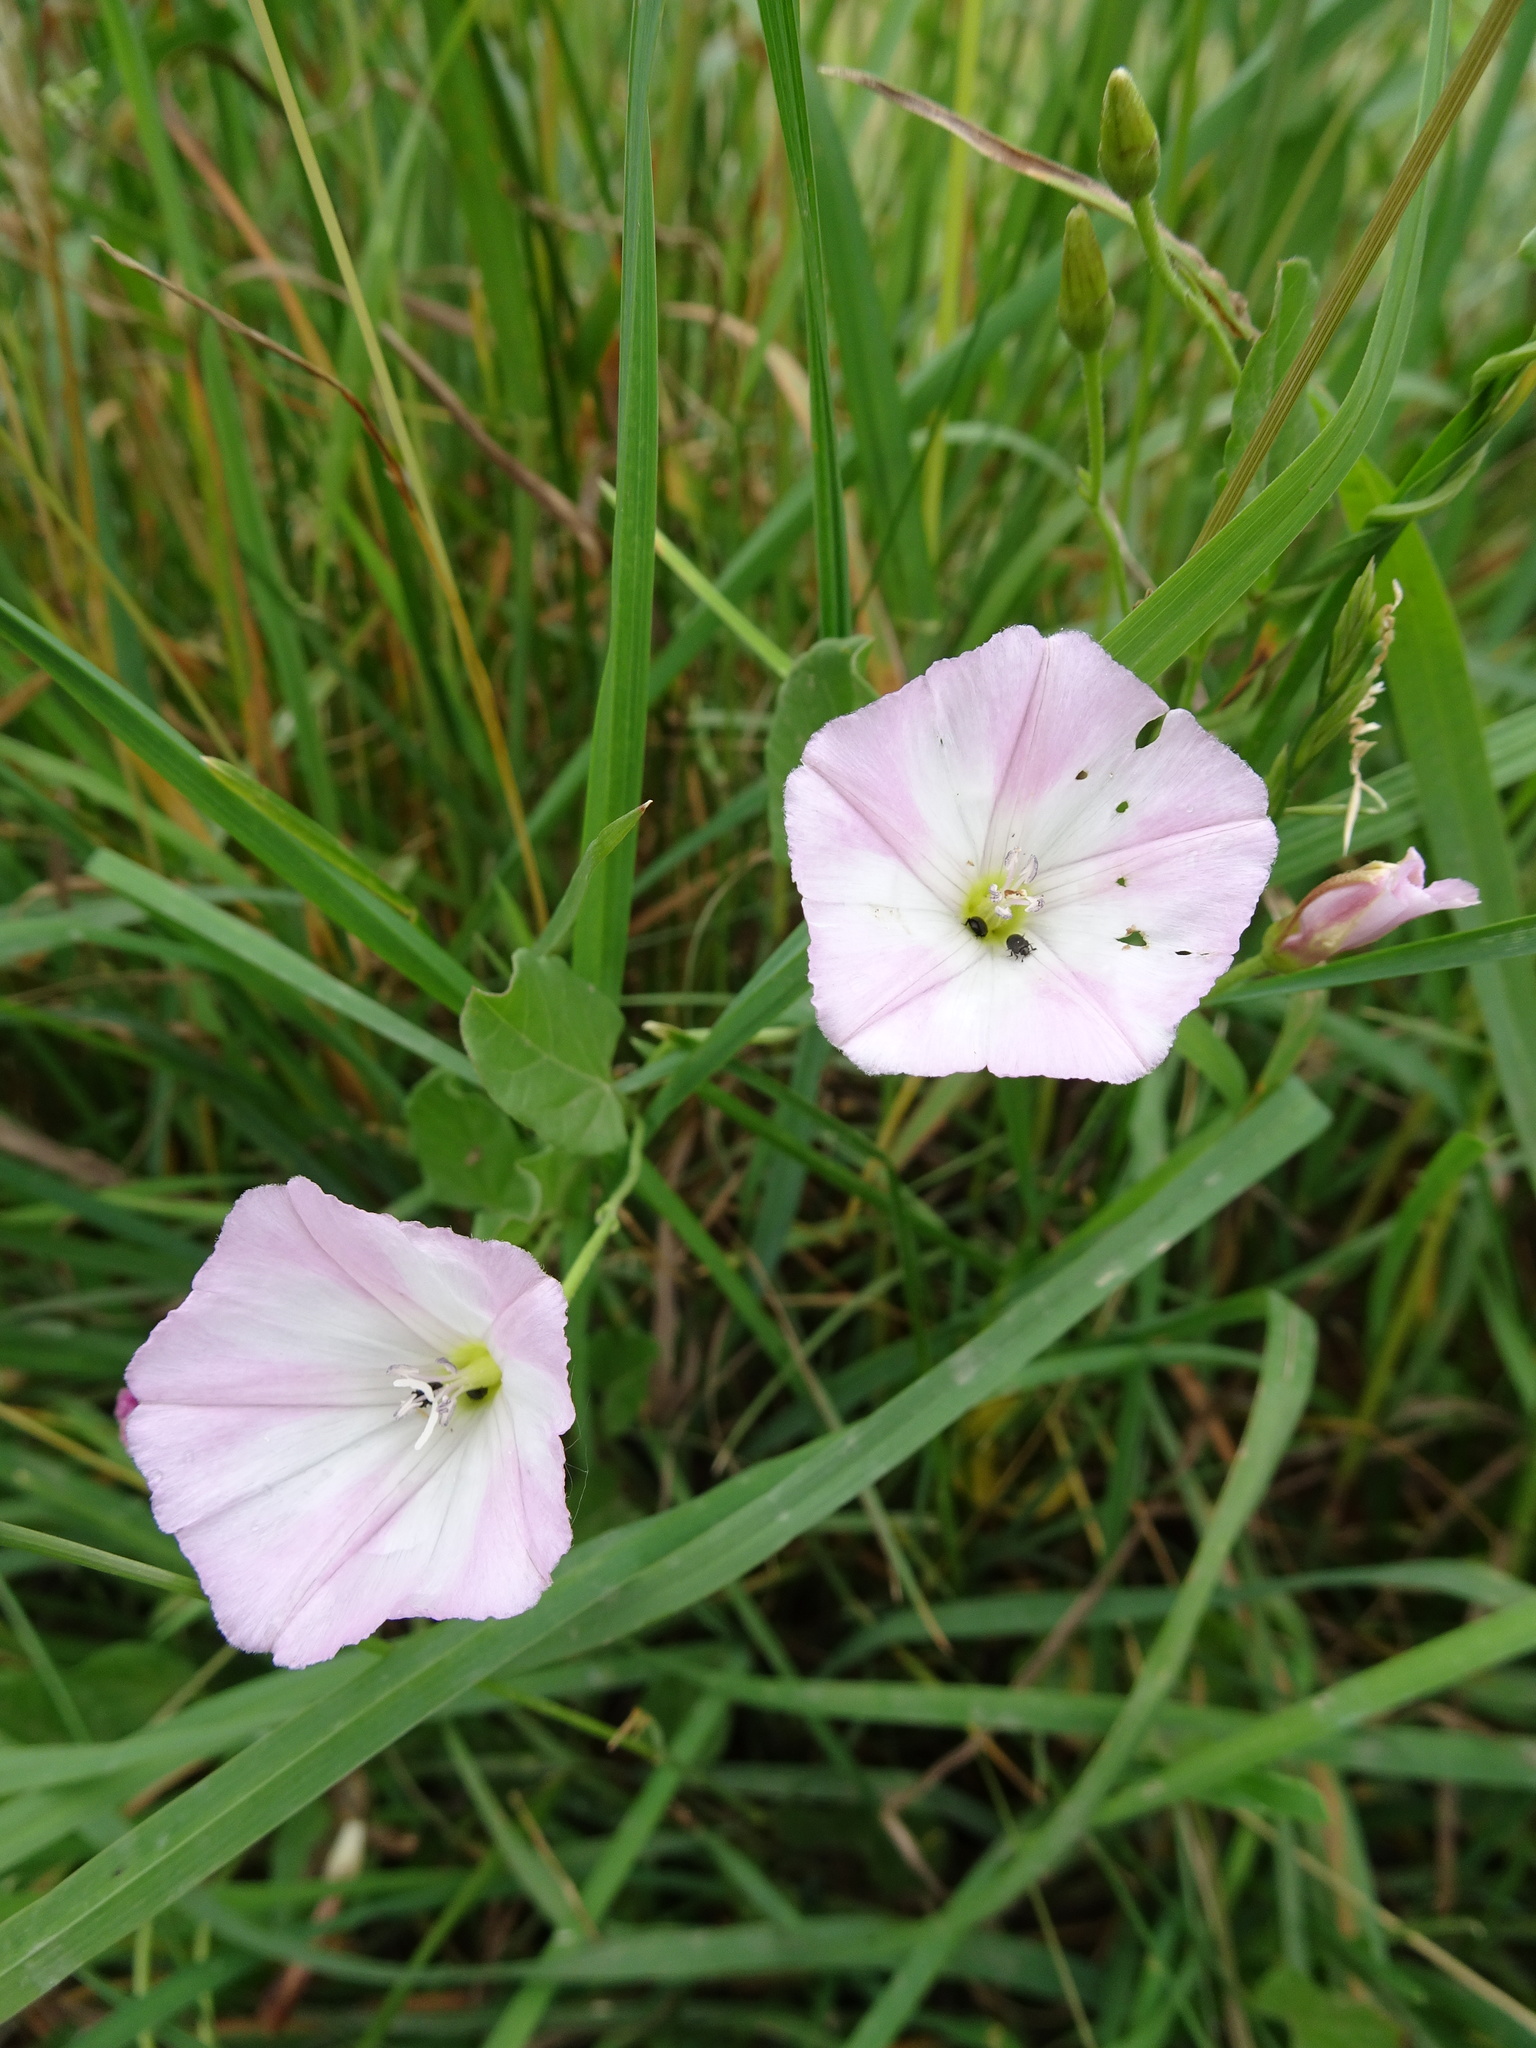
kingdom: Plantae
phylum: Tracheophyta
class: Magnoliopsida
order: Solanales
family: Convolvulaceae
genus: Convolvulus
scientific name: Convolvulus arvensis
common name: Field bindweed
